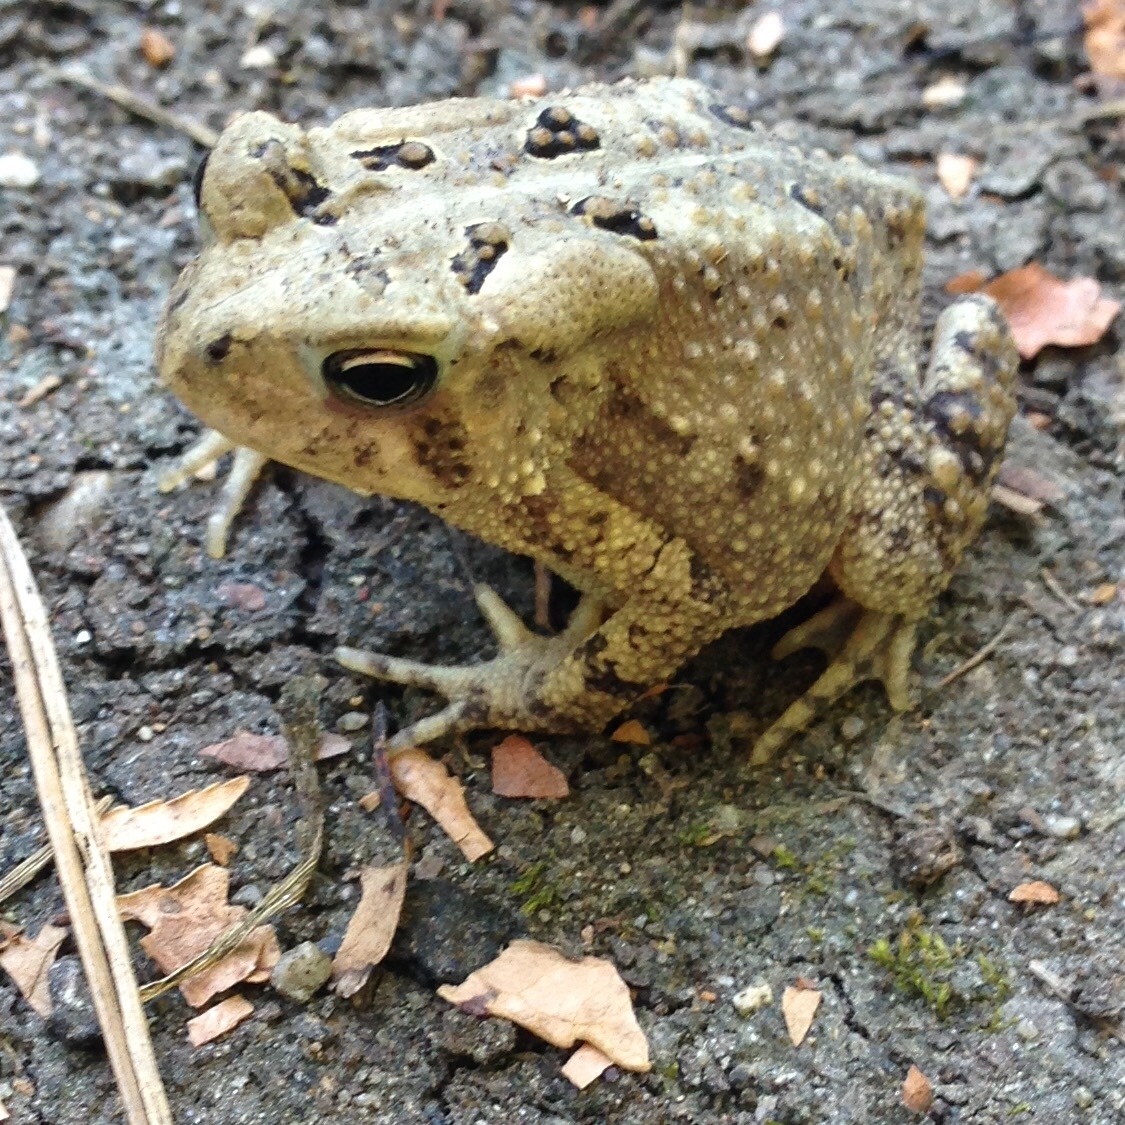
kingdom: Animalia
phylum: Chordata
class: Amphibia
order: Anura
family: Bufonidae
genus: Anaxyrus
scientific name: Anaxyrus americanus
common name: American toad
